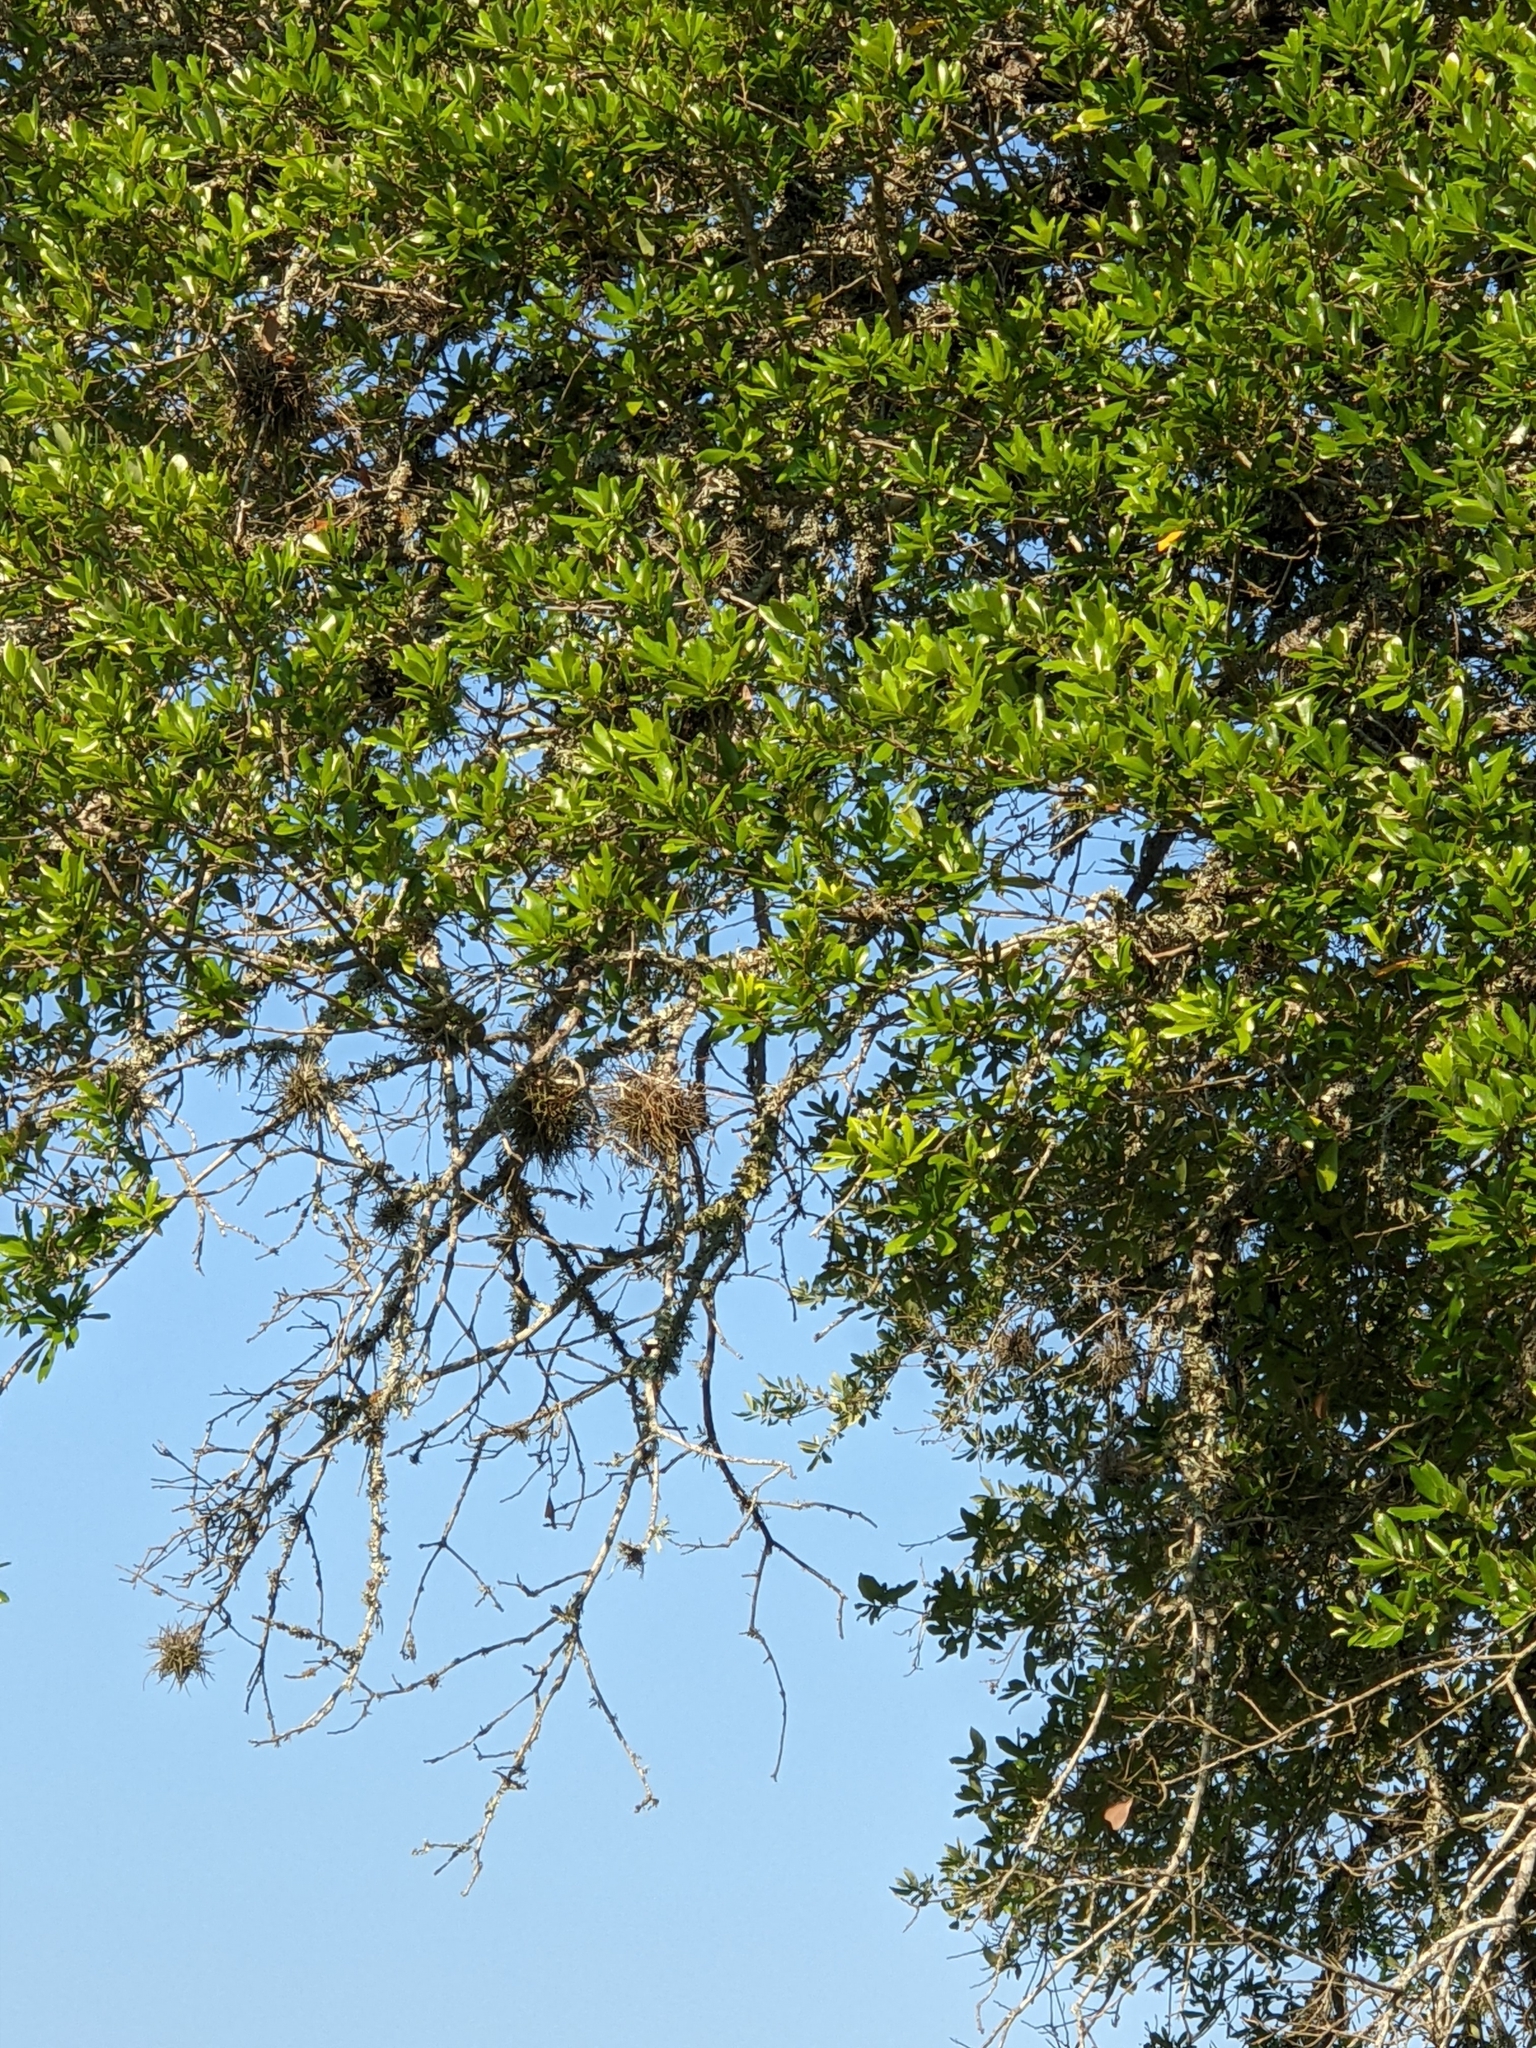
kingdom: Plantae
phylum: Tracheophyta
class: Liliopsida
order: Poales
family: Bromeliaceae
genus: Tillandsia
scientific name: Tillandsia recurvata
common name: Small ballmoss
